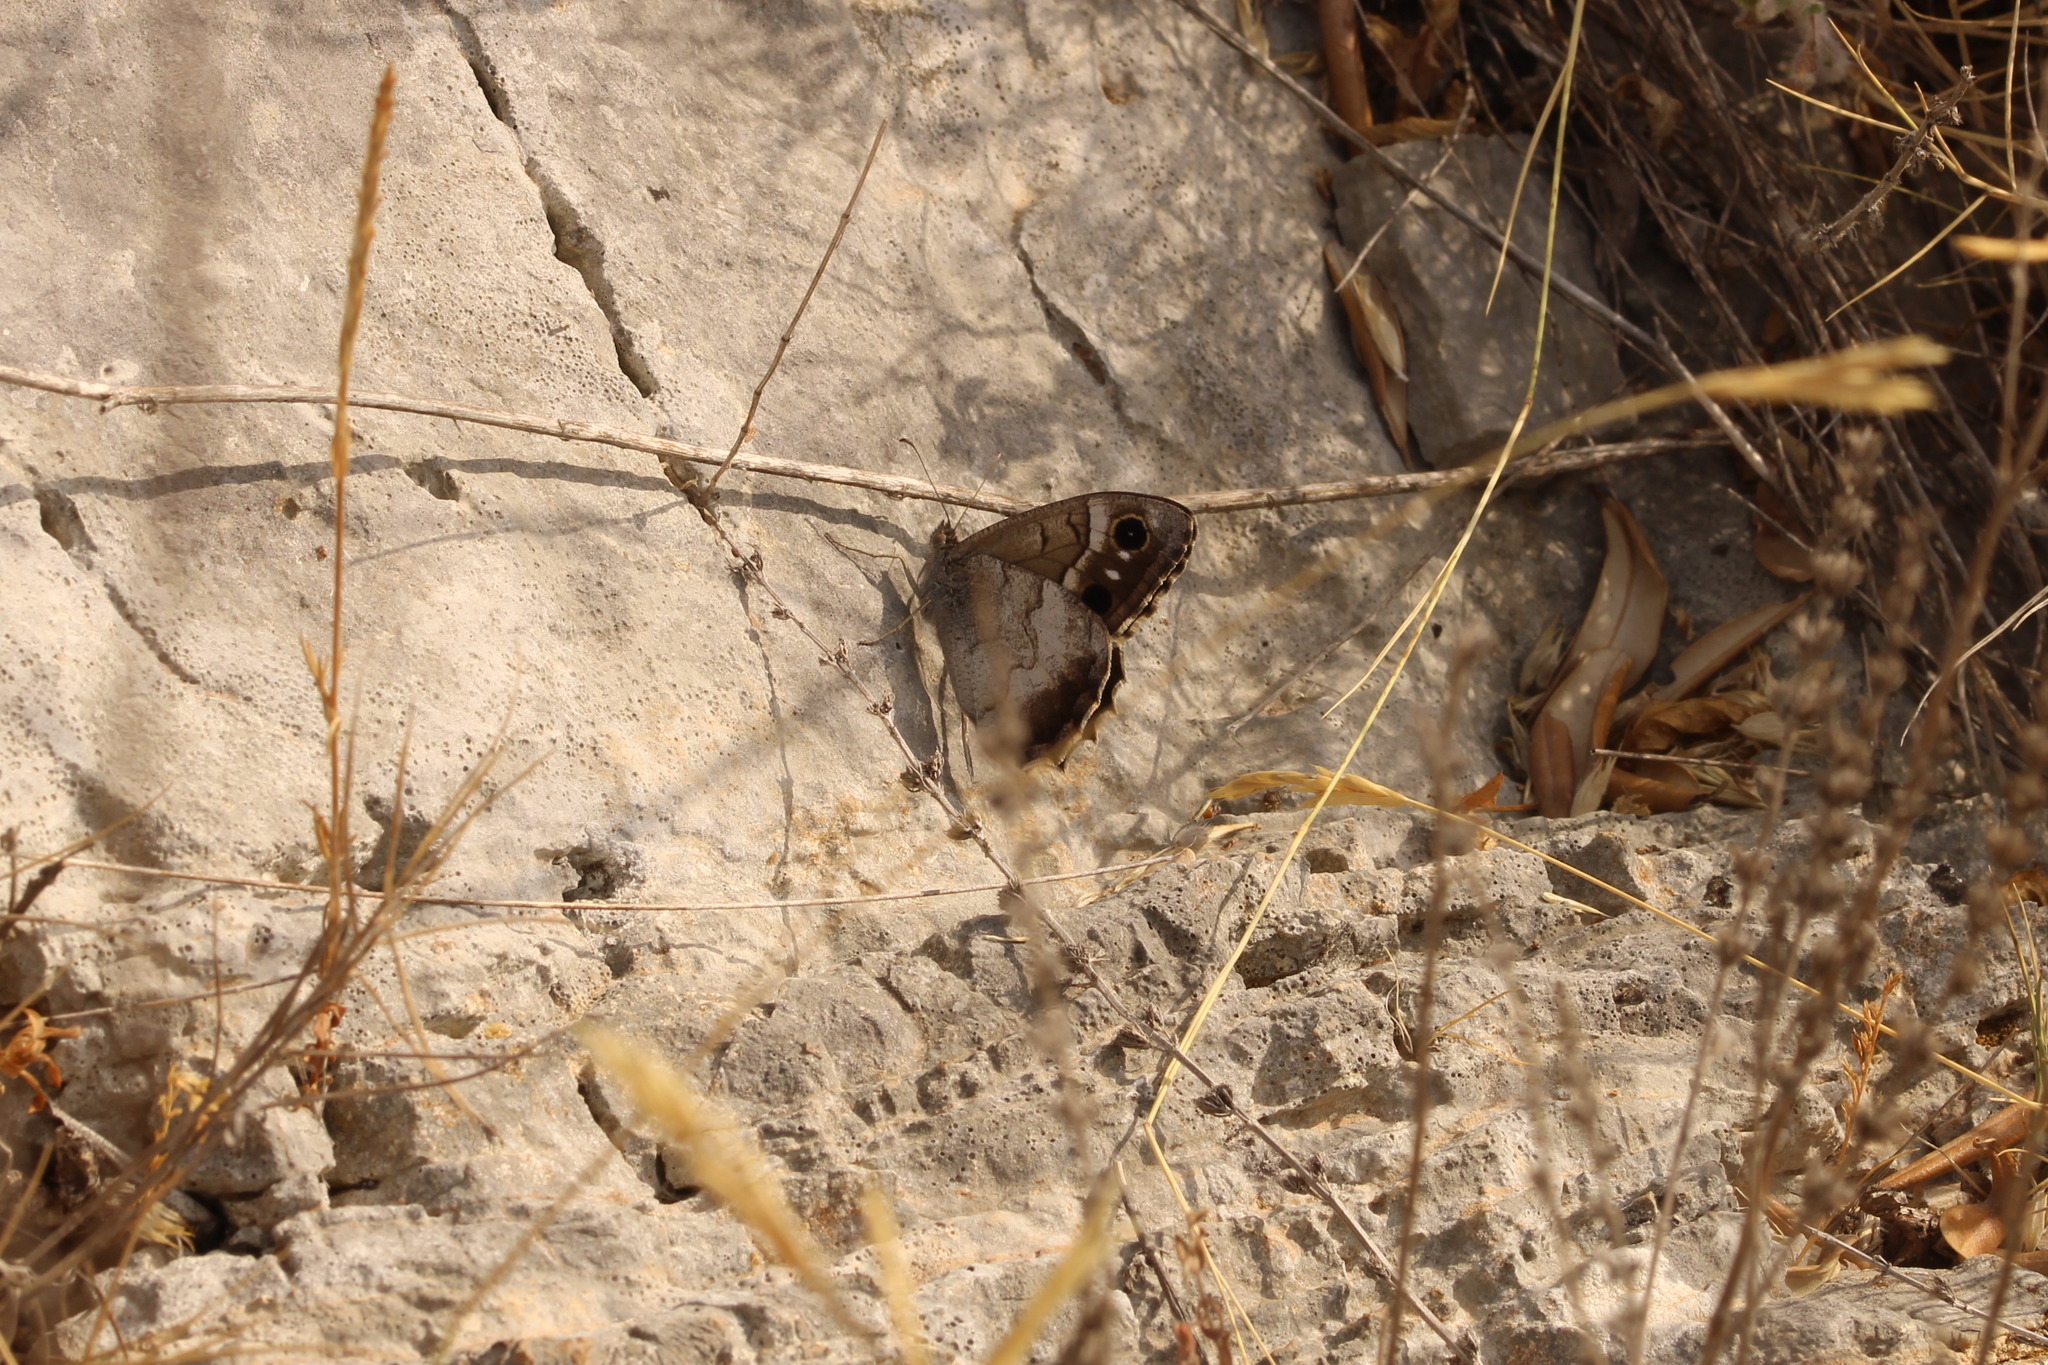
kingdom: Animalia
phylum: Arthropoda
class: Insecta
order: Lepidoptera
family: Nymphalidae
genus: Hipparchia
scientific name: Hipparchia statilinus
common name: Tree grayling
